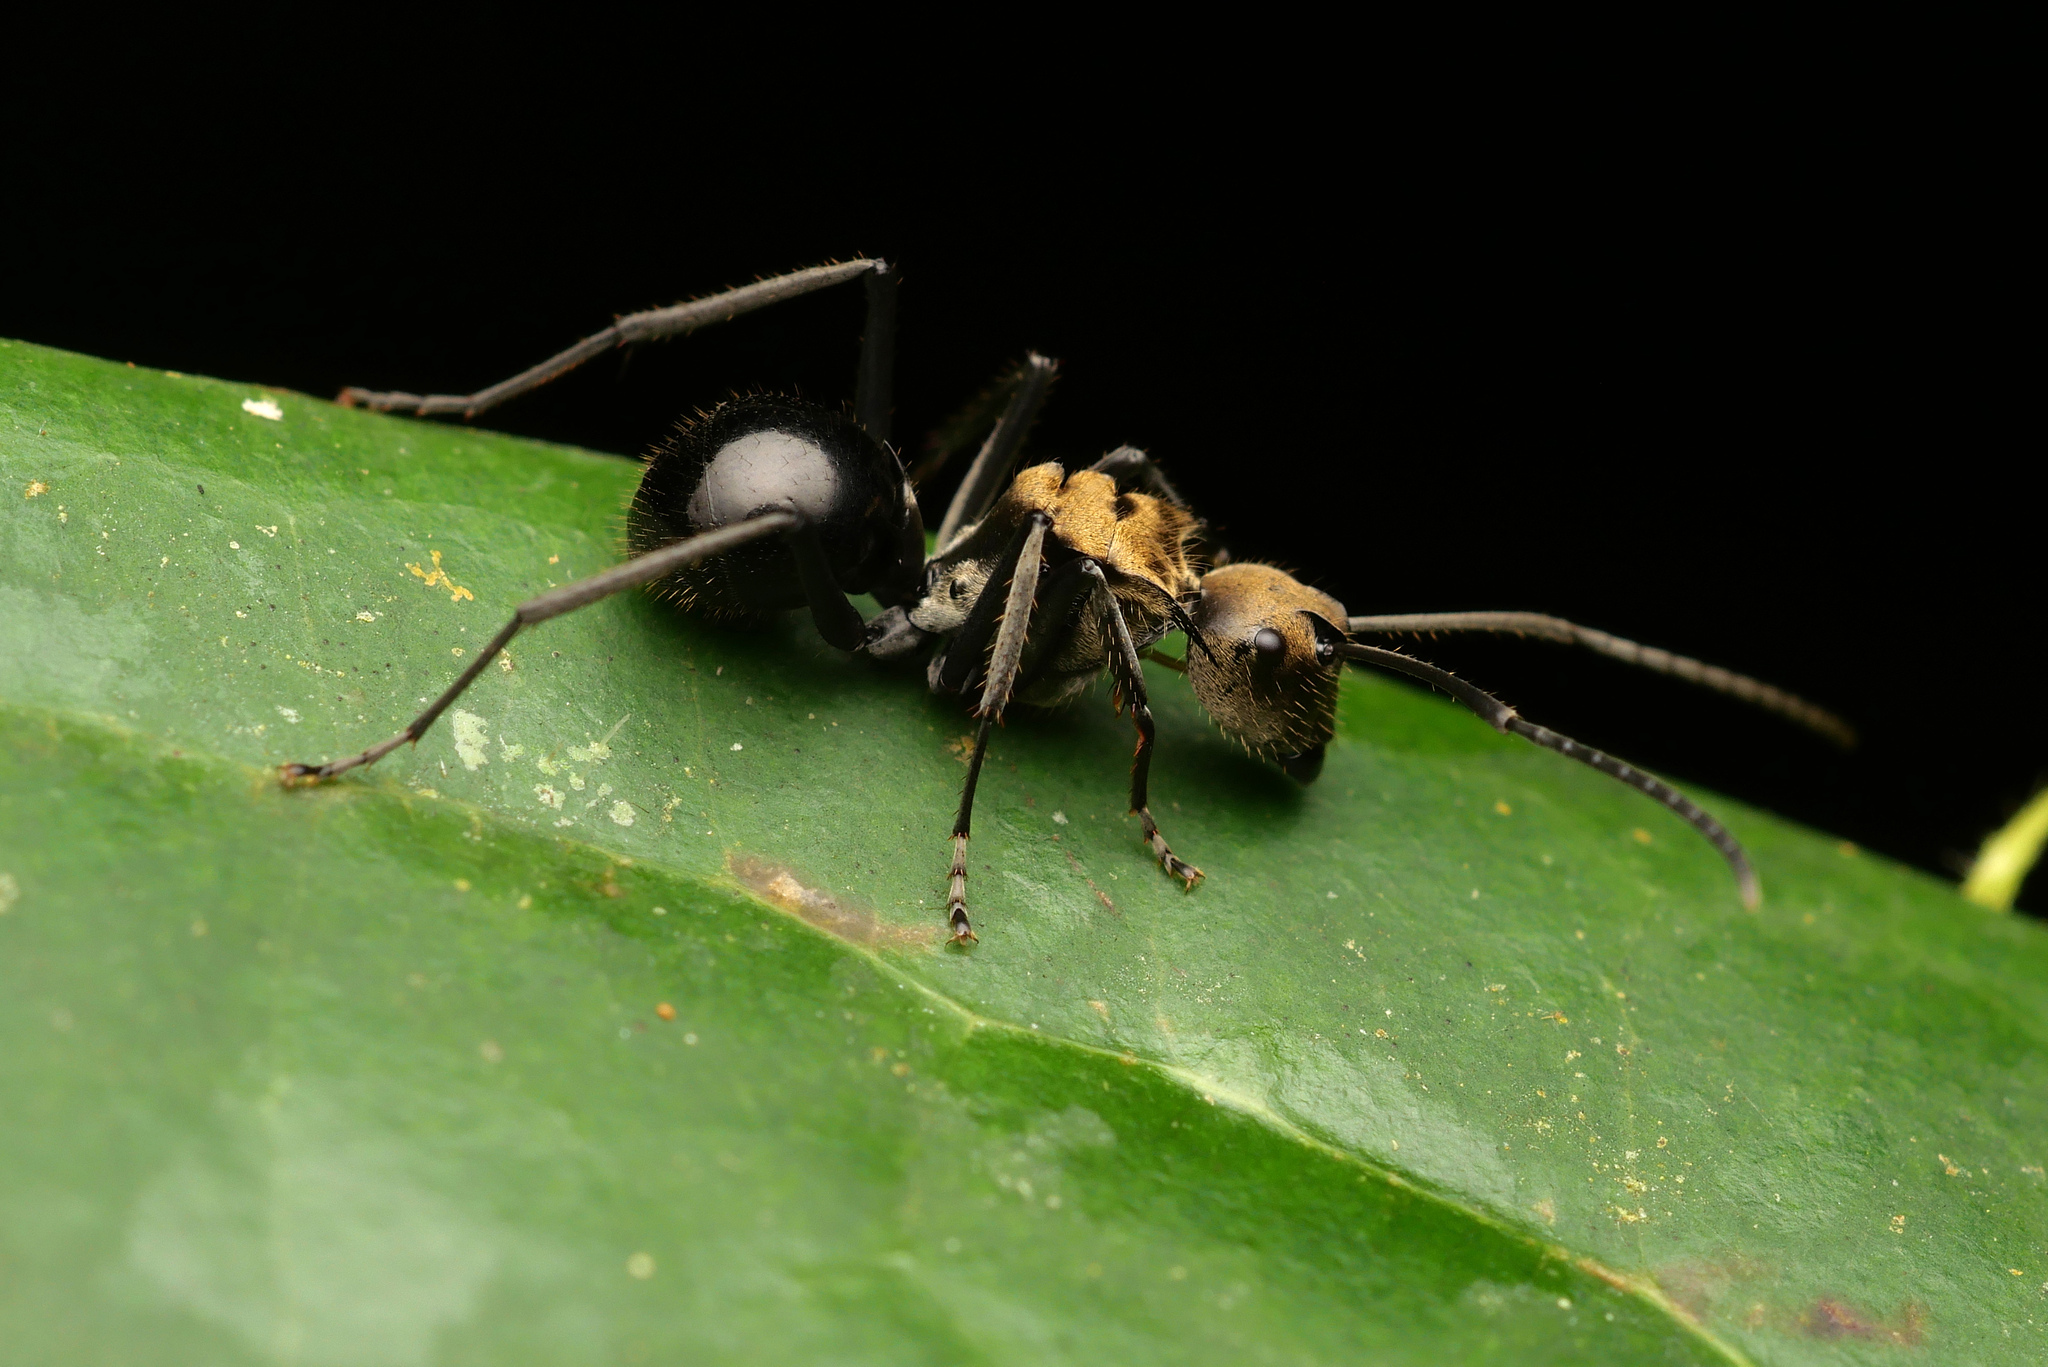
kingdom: Animalia
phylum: Arthropoda
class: Insecta
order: Hymenoptera
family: Formicidae
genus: Polyrhachis
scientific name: Polyrhachis sericata
